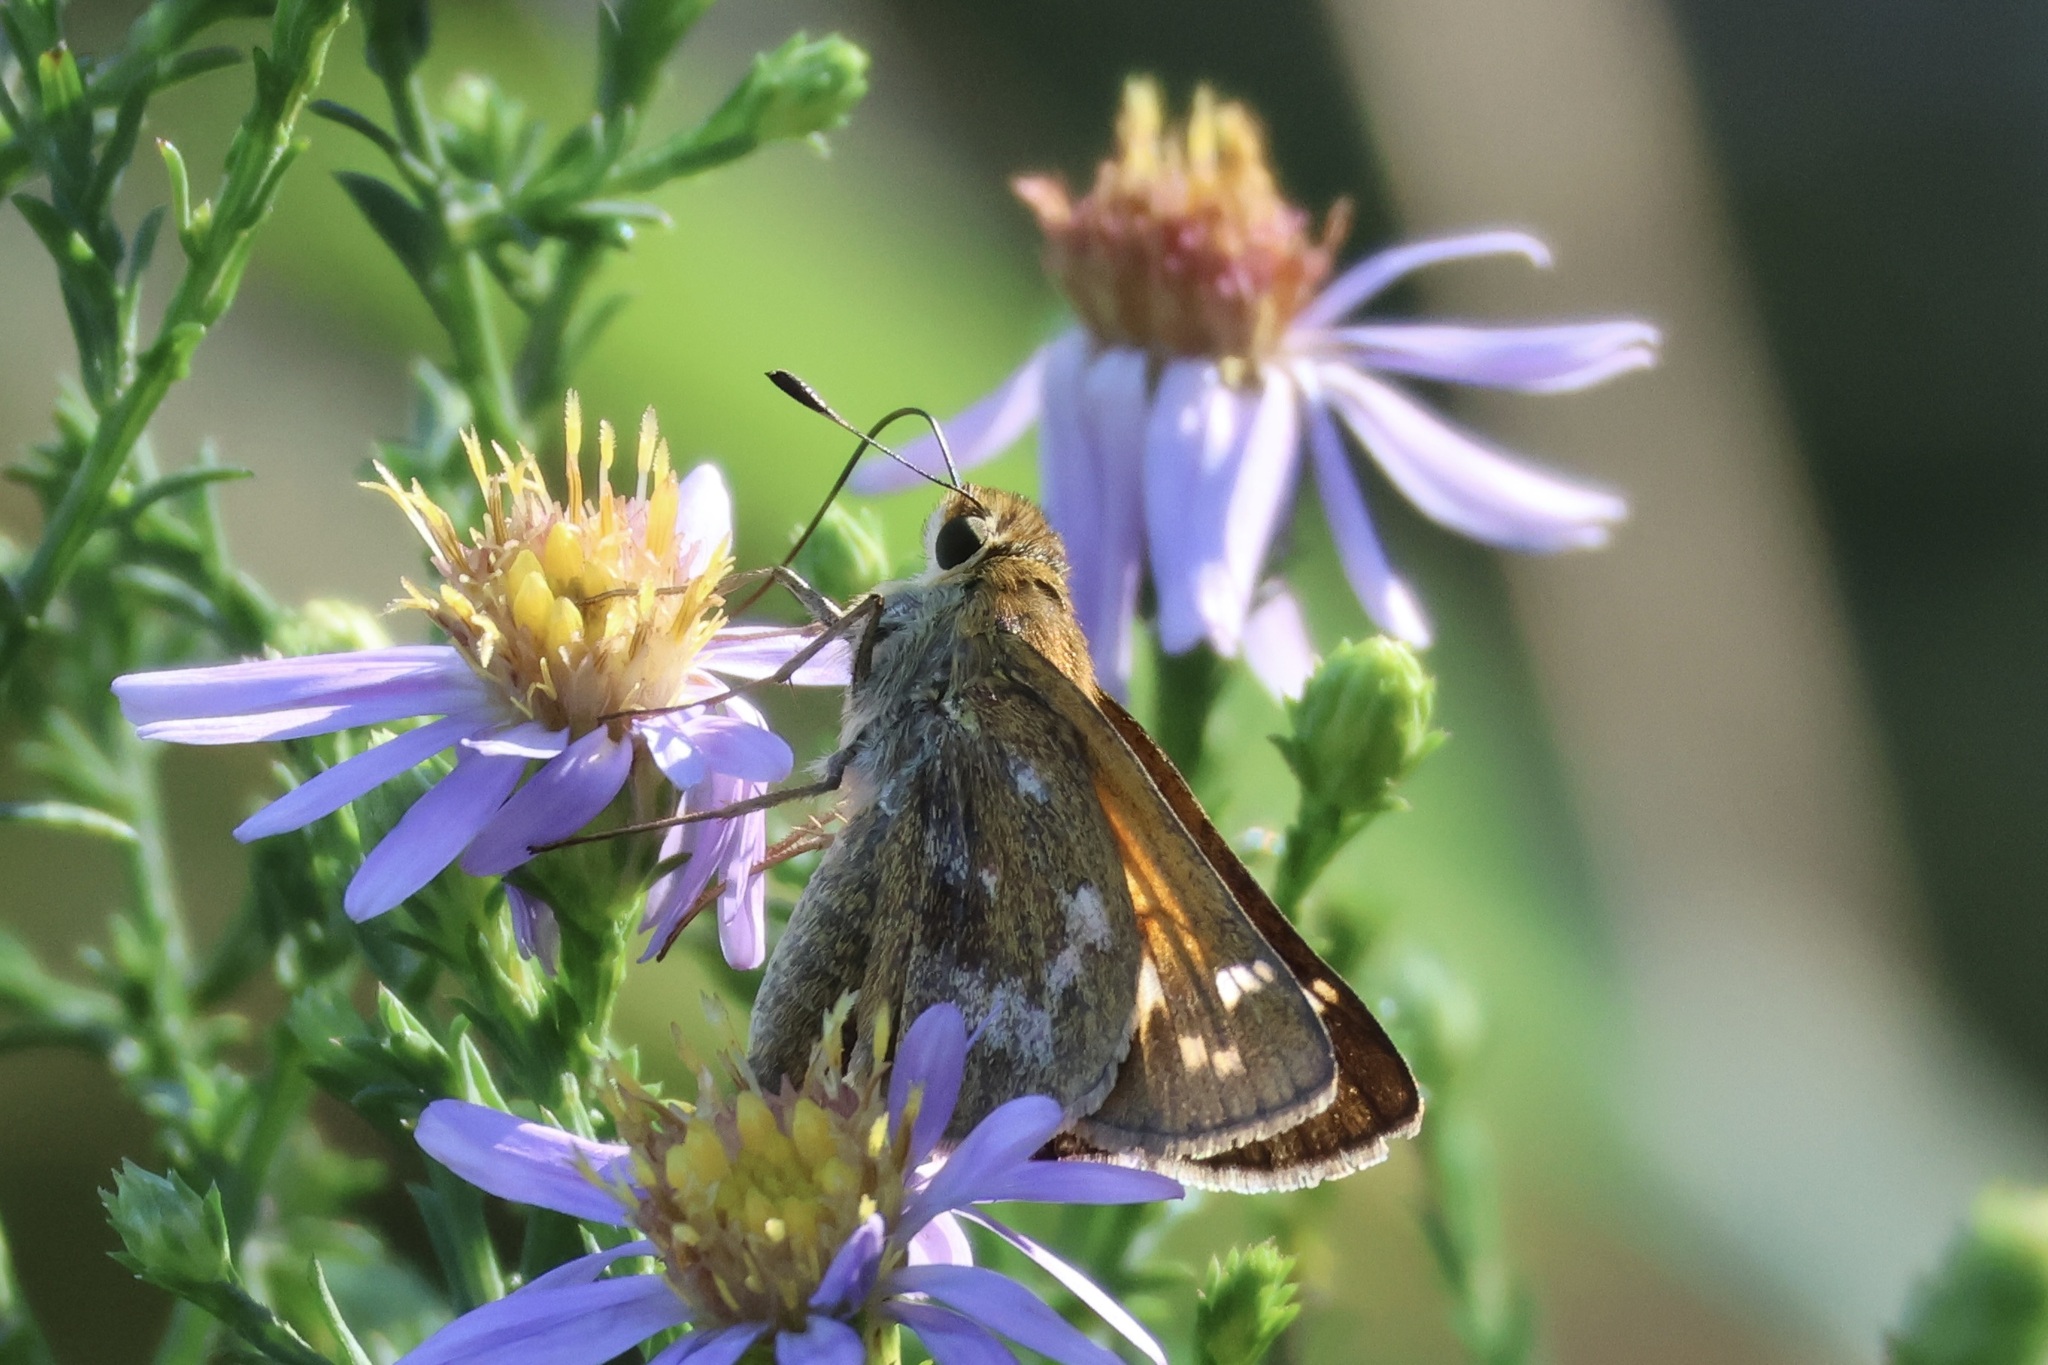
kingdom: Animalia
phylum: Arthropoda
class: Insecta
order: Lepidoptera
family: Hesperiidae
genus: Atalopedes
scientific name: Atalopedes
